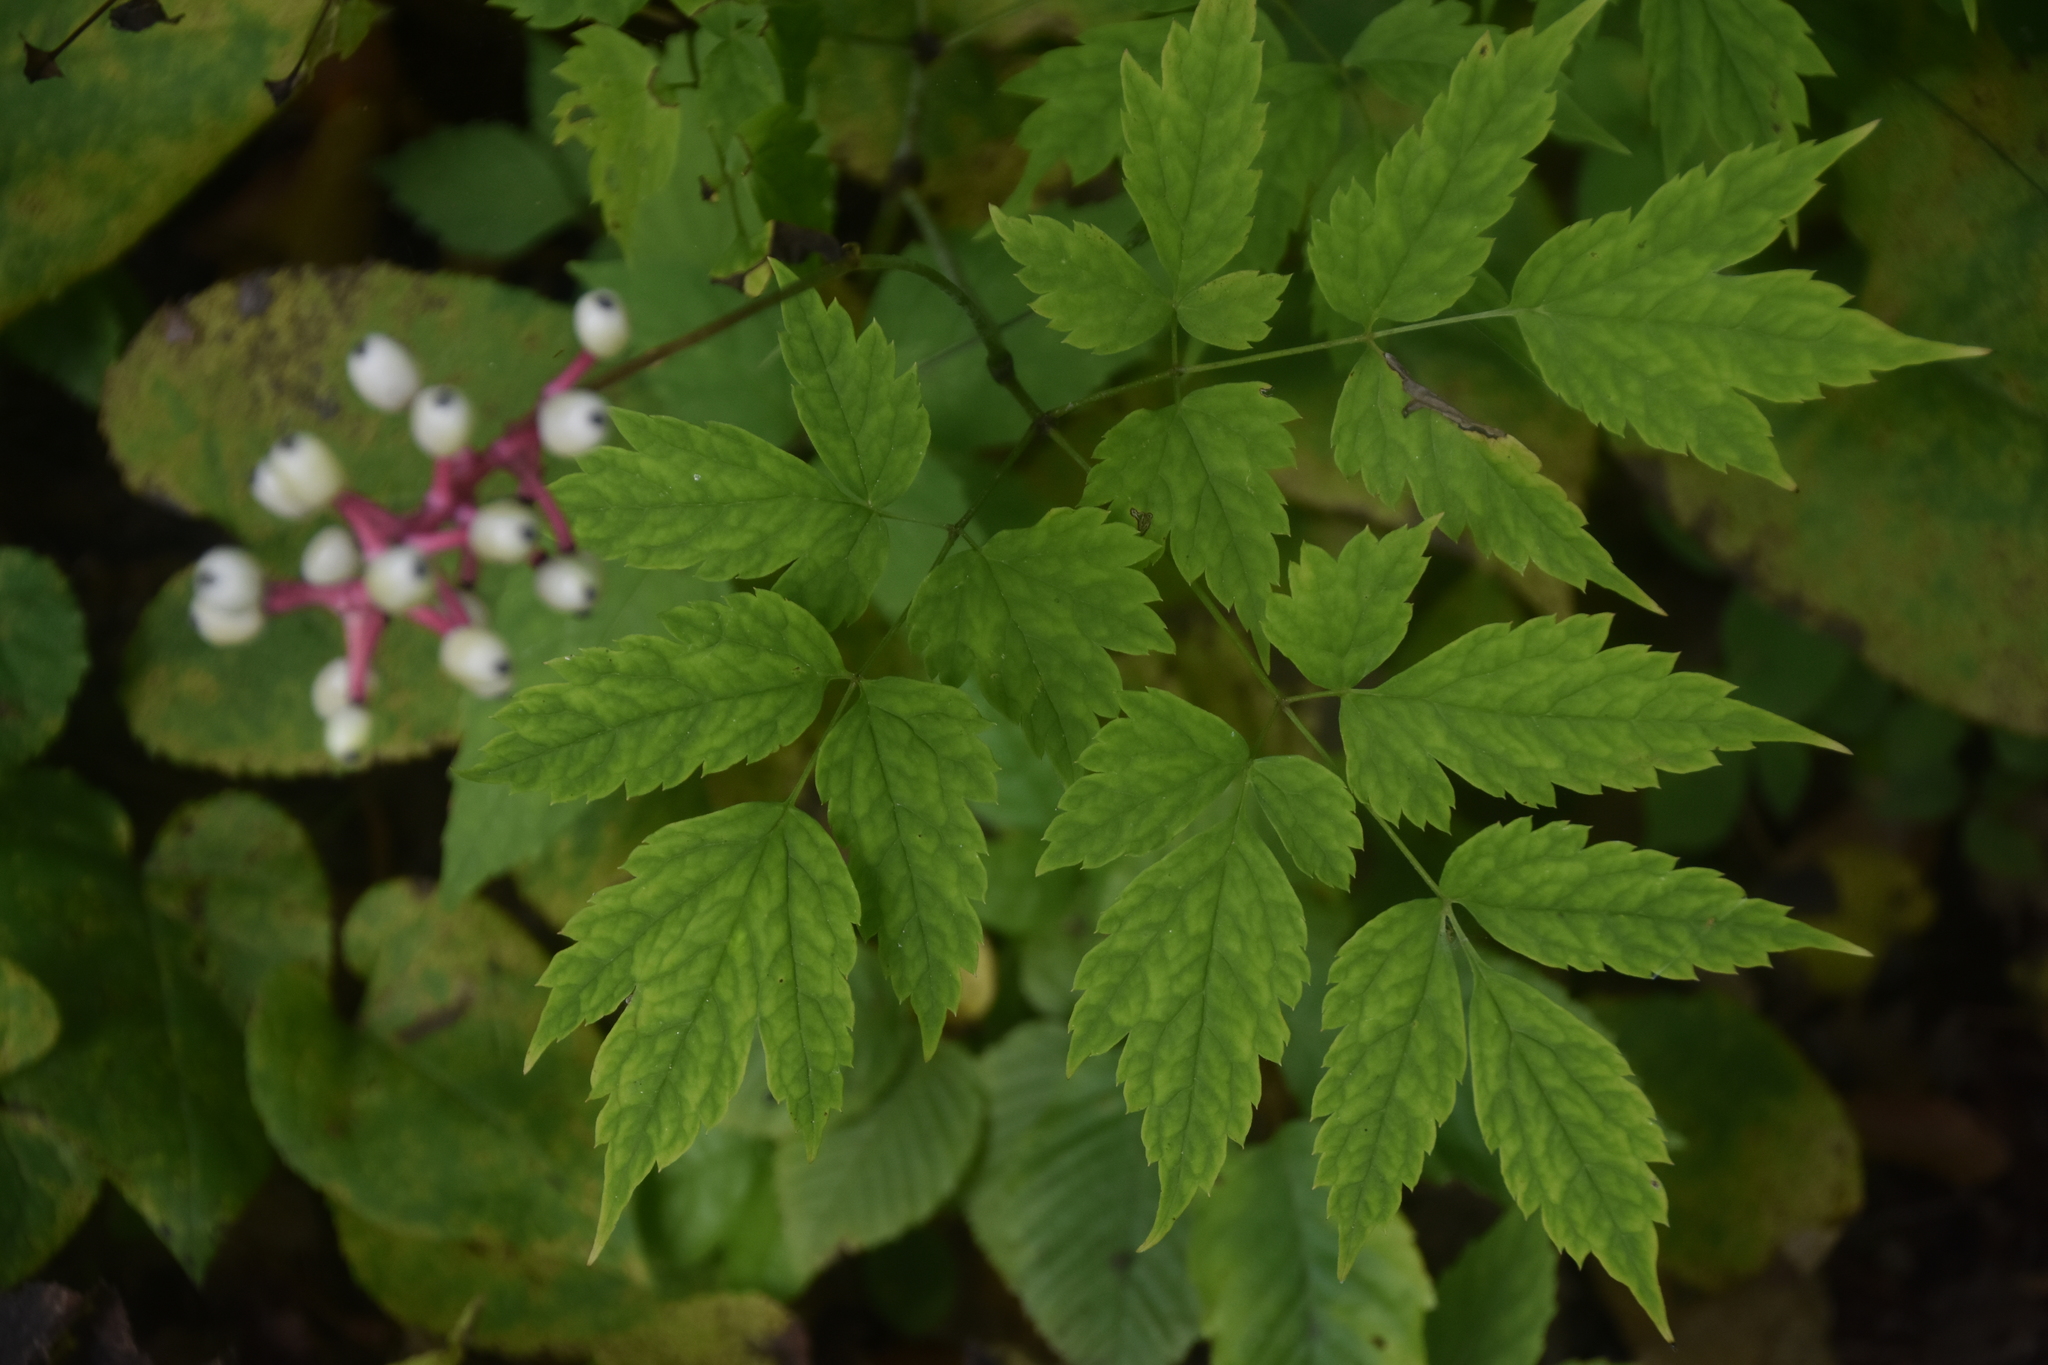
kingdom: Plantae
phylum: Tracheophyta
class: Magnoliopsida
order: Ranunculales
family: Ranunculaceae
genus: Actaea
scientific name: Actaea pachypoda
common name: Doll's-eyes
